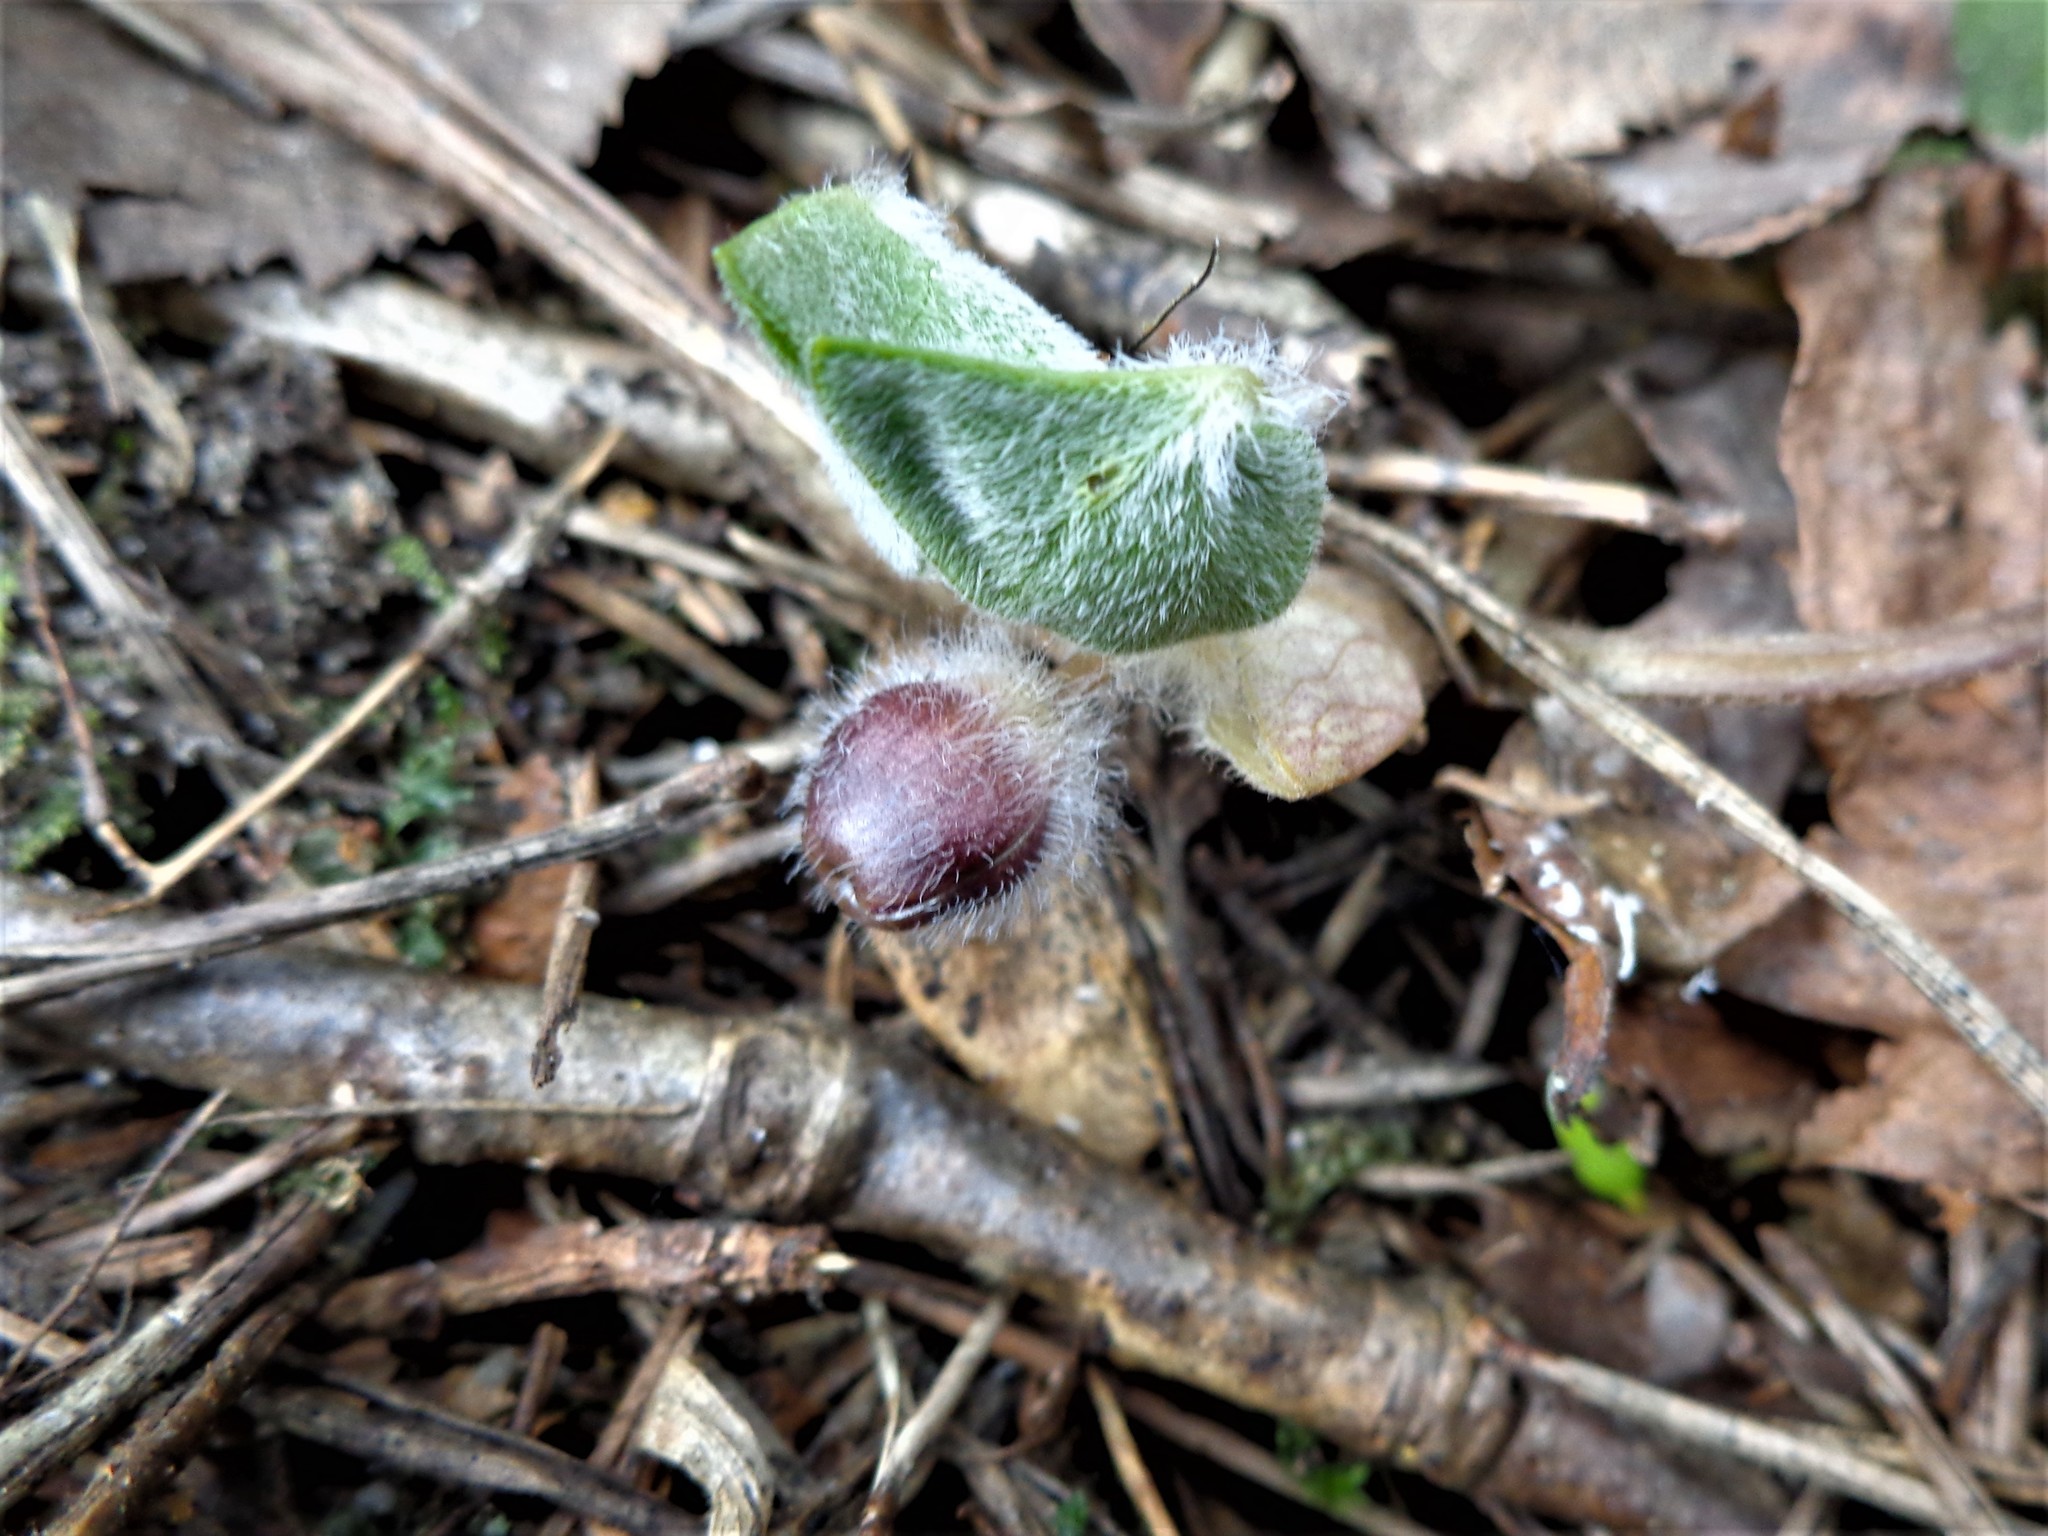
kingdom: Plantae
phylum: Tracheophyta
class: Magnoliopsida
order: Piperales
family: Aristolochiaceae
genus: Asarum
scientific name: Asarum europaeum
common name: Asarabacca
